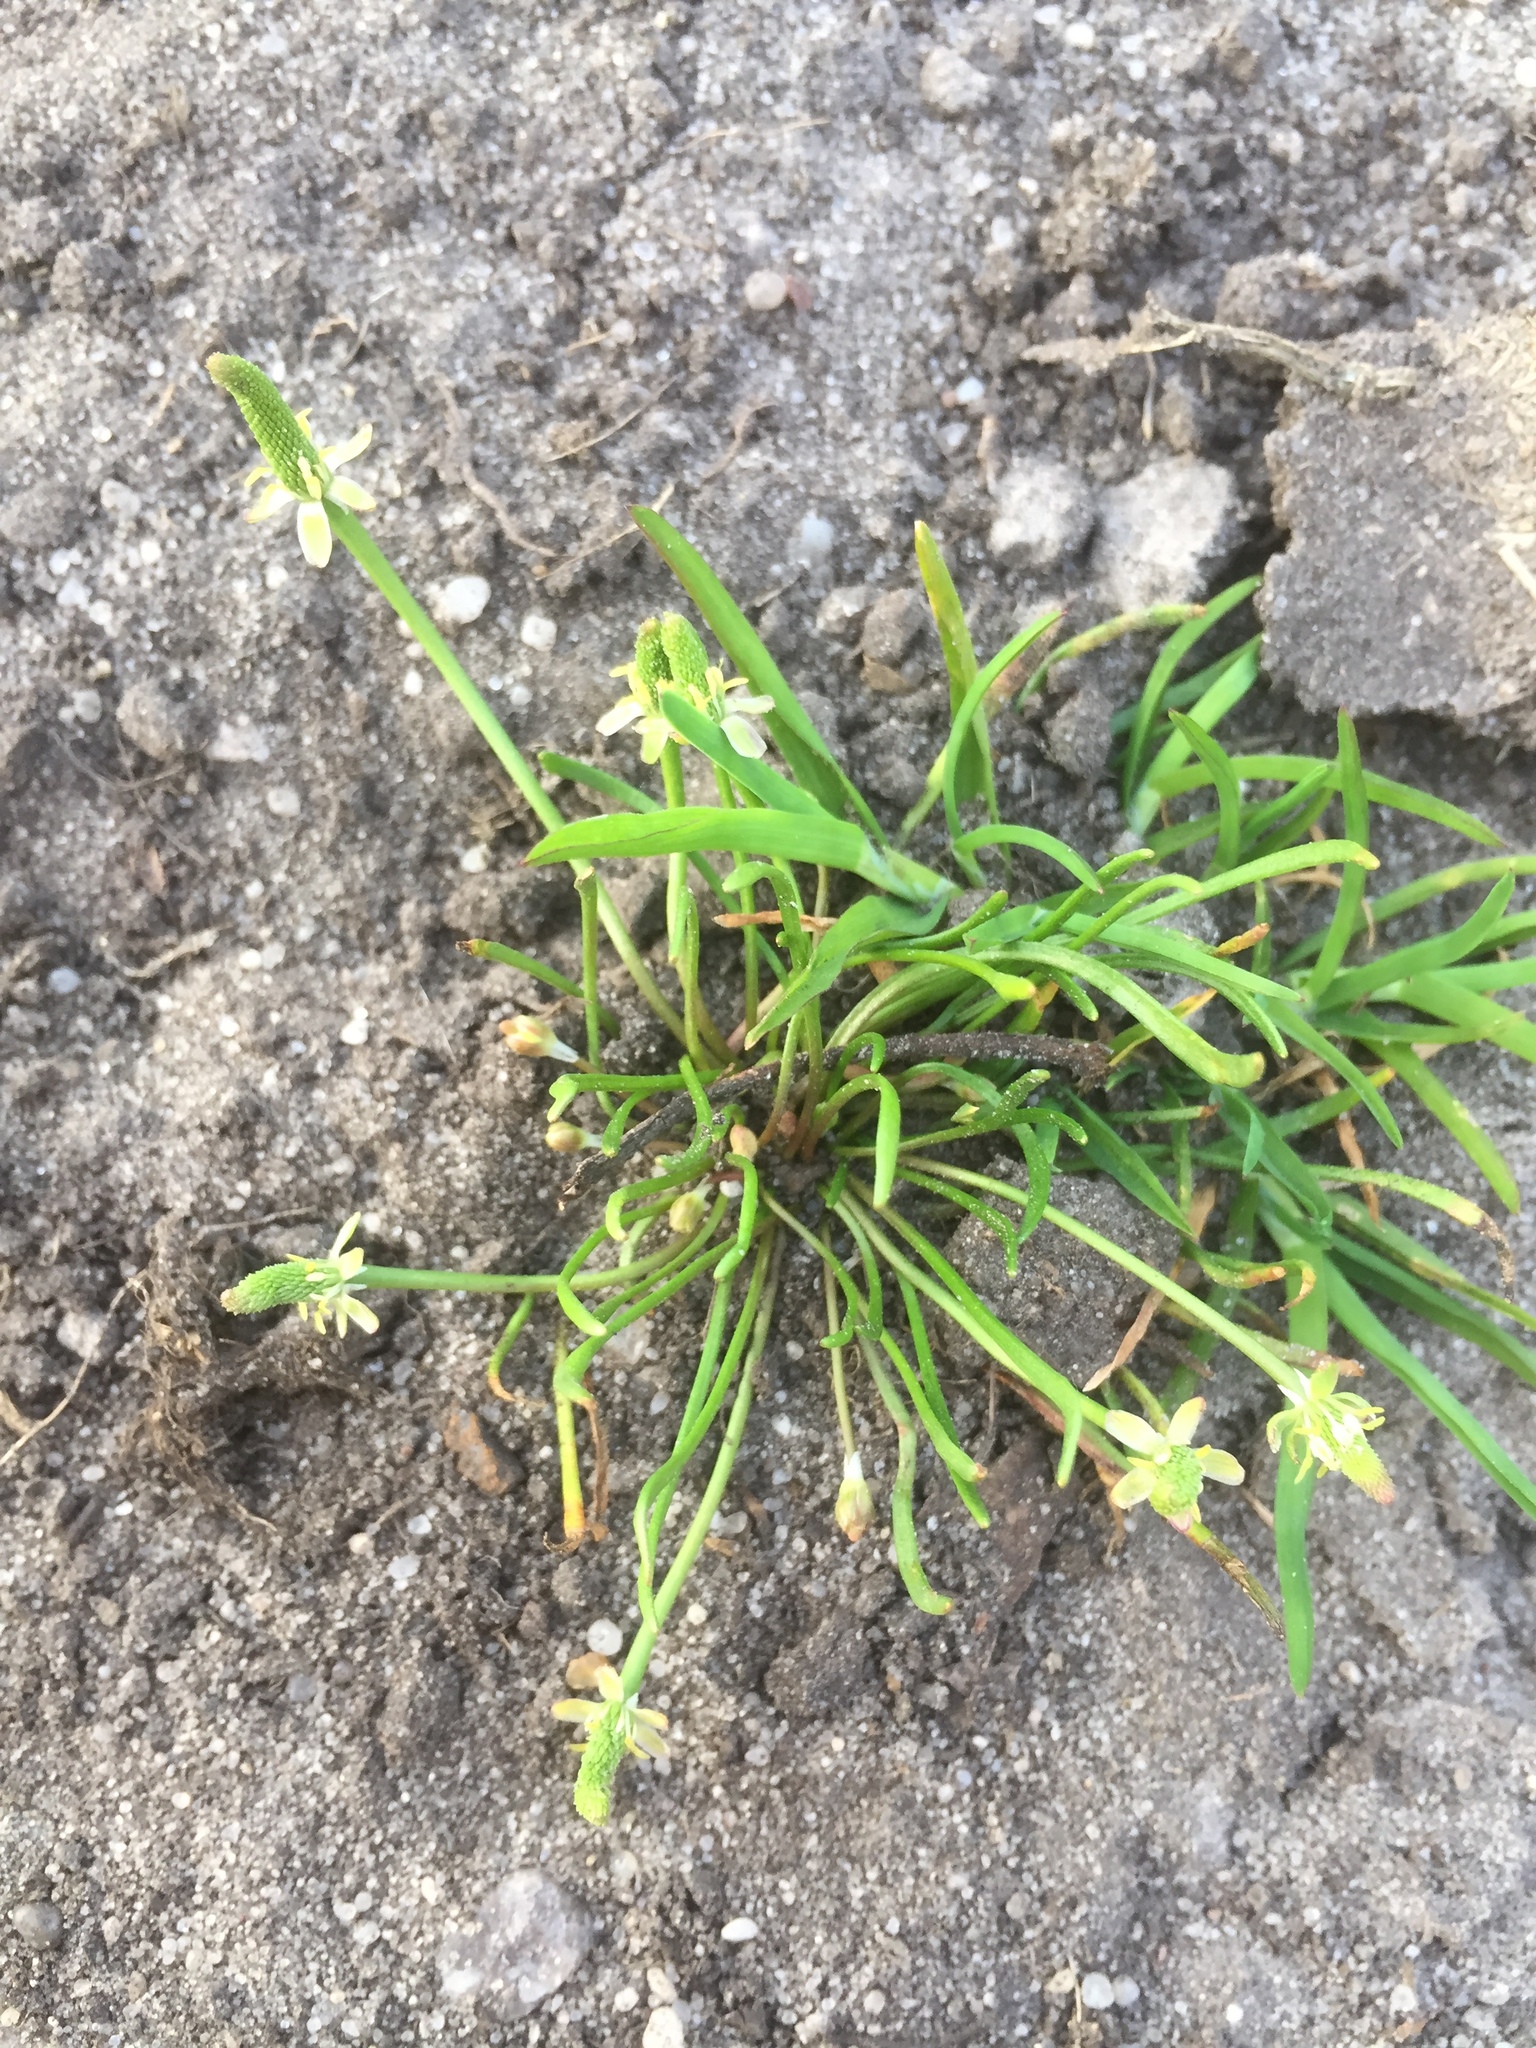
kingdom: Plantae
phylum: Tracheophyta
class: Magnoliopsida
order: Ranunculales
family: Ranunculaceae
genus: Myosurus
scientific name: Myosurus minimus
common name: Mousetail
